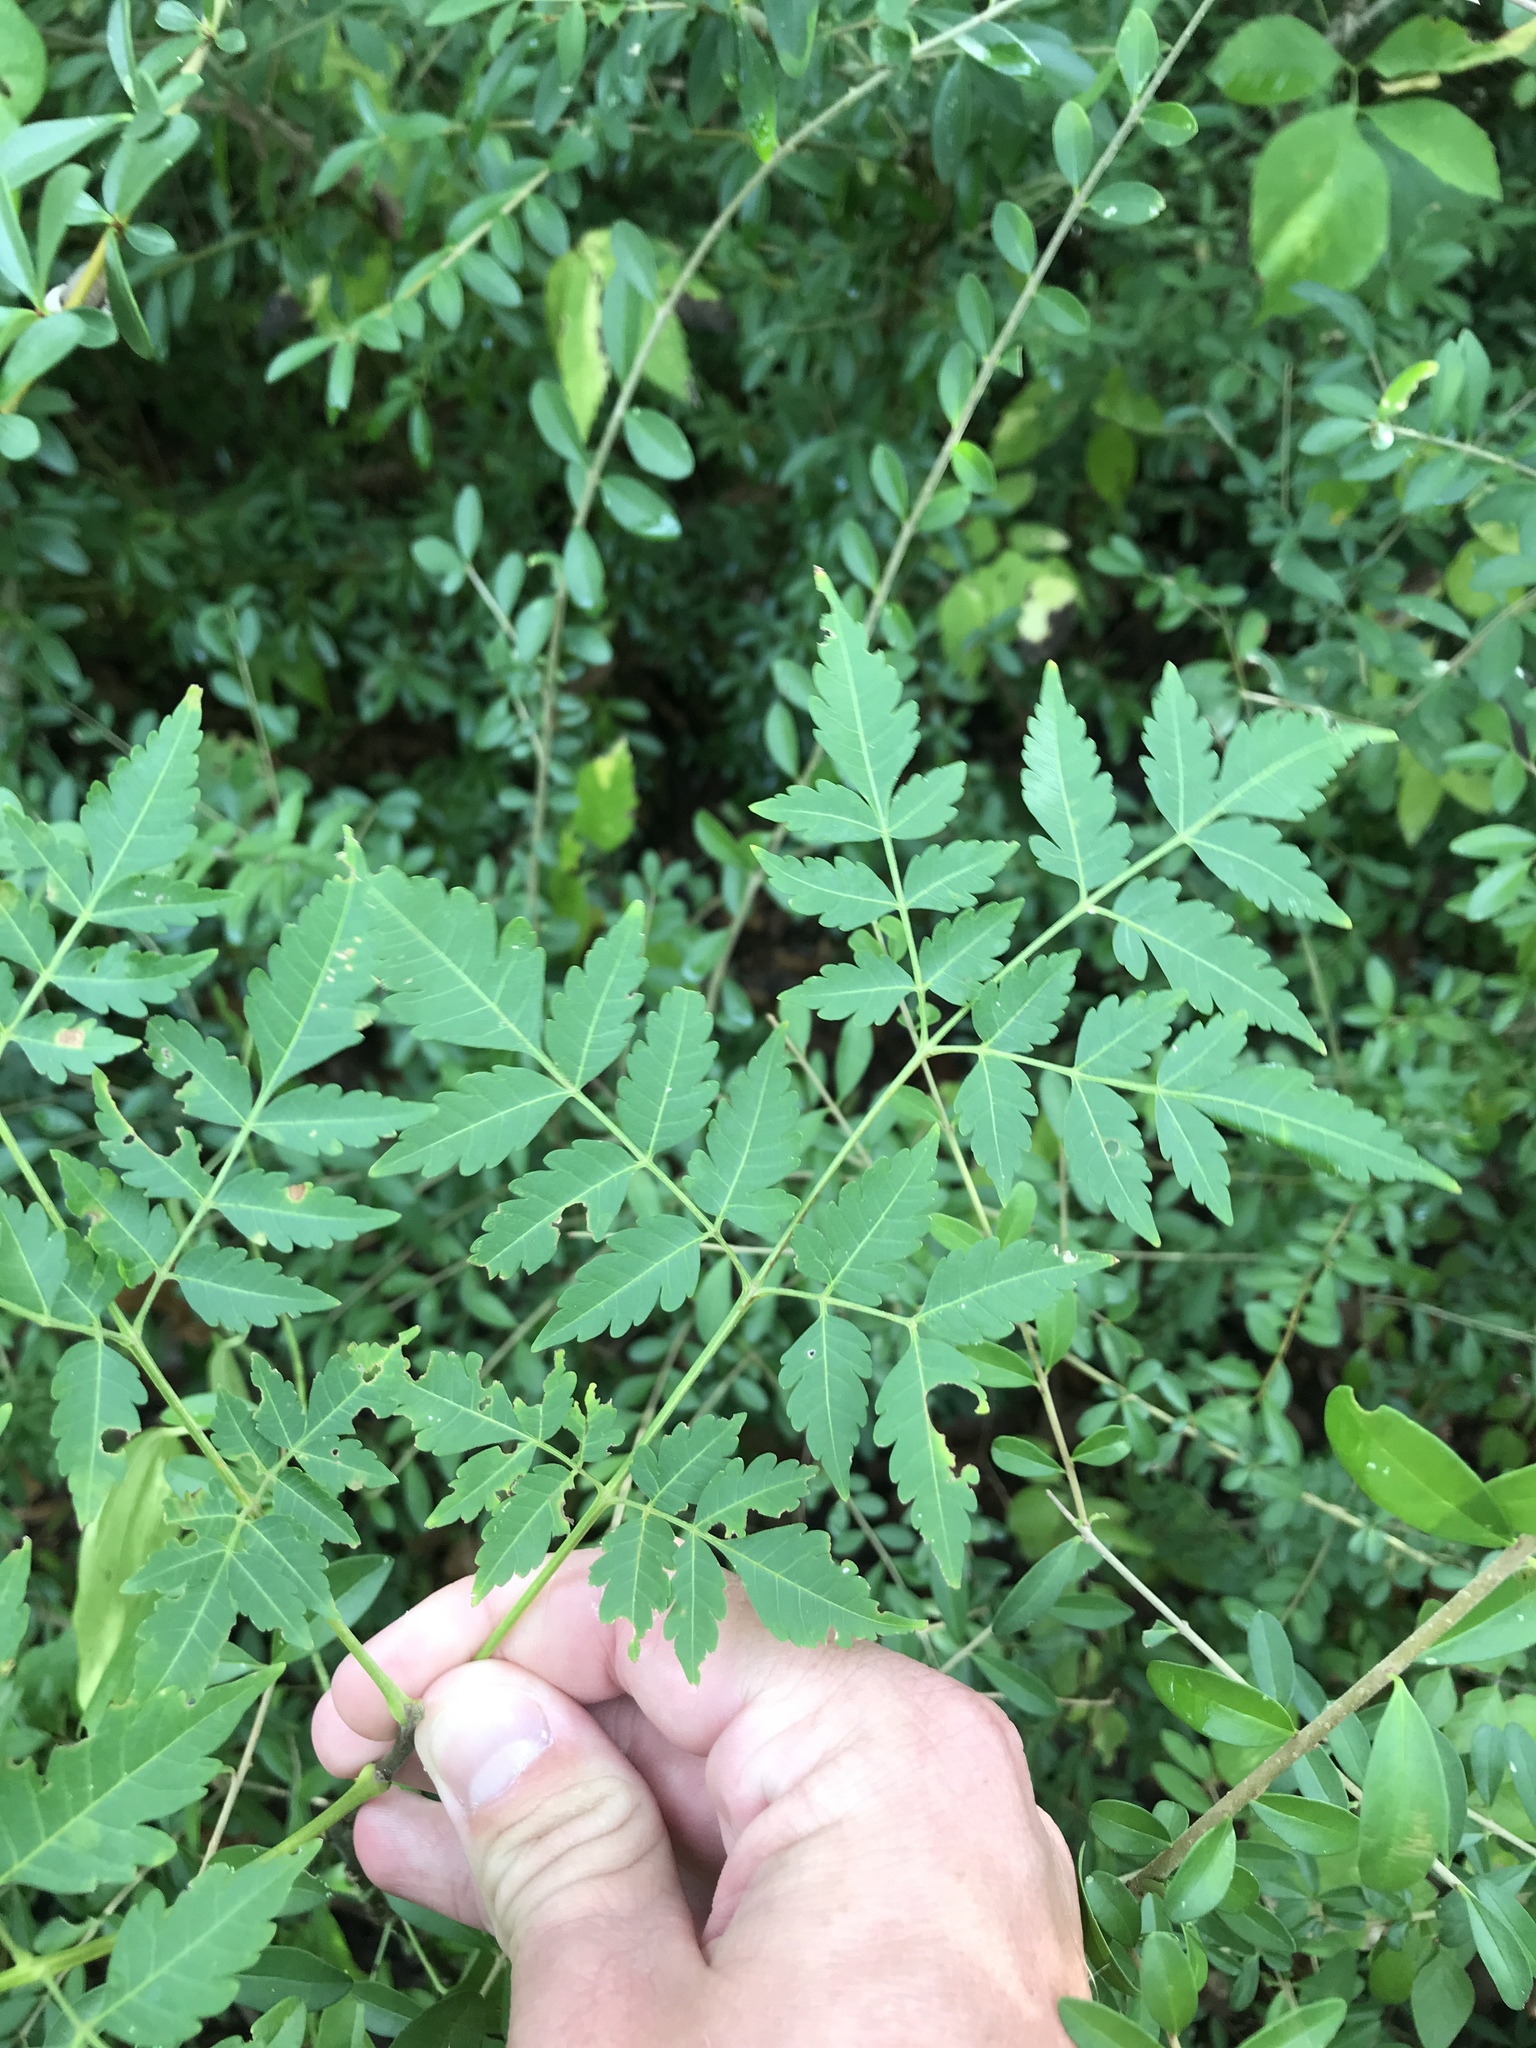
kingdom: Plantae
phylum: Tracheophyta
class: Magnoliopsida
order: Sapindales
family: Meliaceae
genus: Melia
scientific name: Melia azedarach
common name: Chinaberrytree
